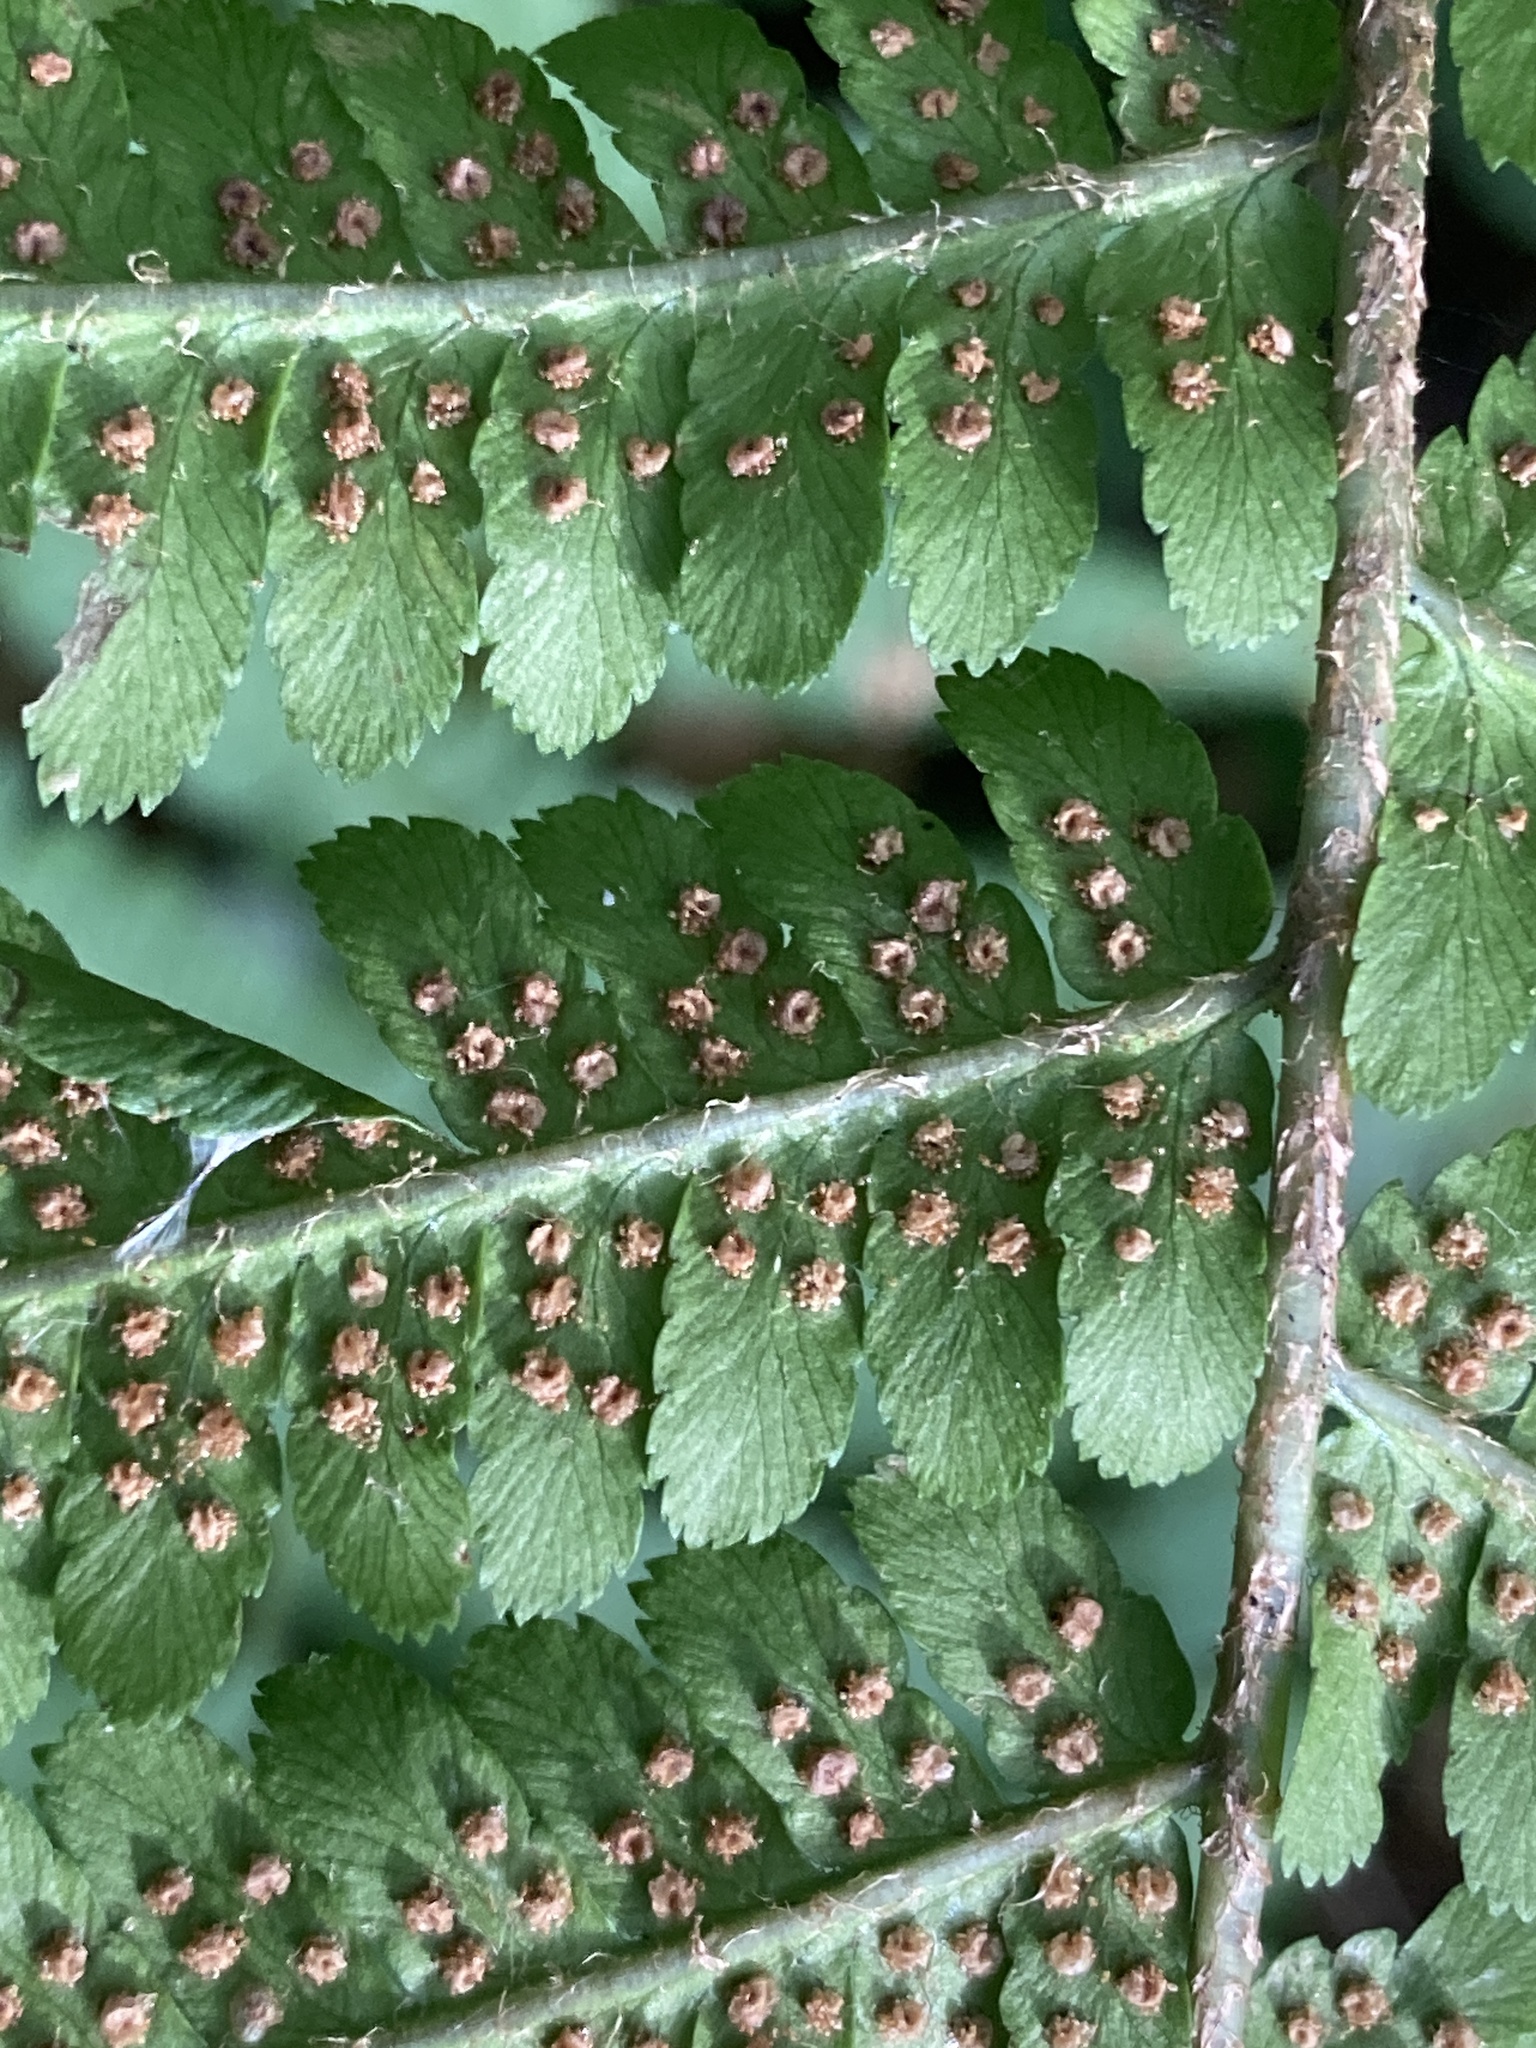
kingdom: Plantae
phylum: Tracheophyta
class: Polypodiopsida
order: Polypodiales
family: Dryopteridaceae
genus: Dryopteris
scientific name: Dryopteris filix-mas
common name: Male fern
